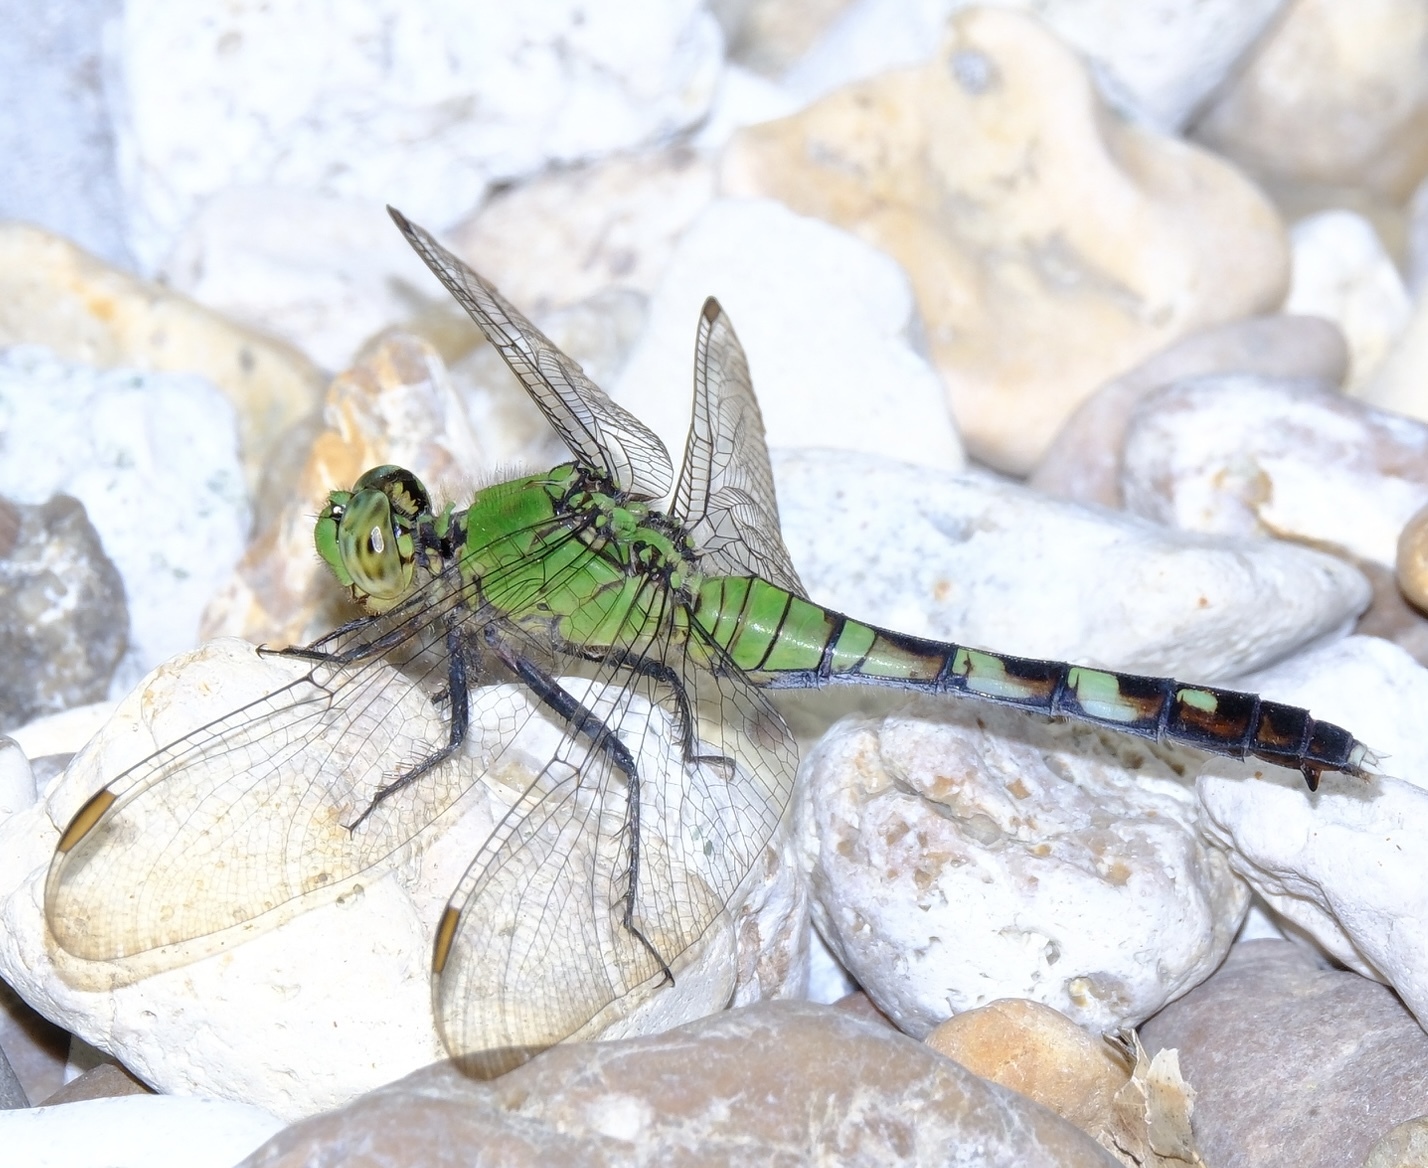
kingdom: Animalia
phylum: Arthropoda
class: Insecta
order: Odonata
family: Libellulidae
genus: Erythemis
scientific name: Erythemis simplicicollis
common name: Eastern pondhawk
